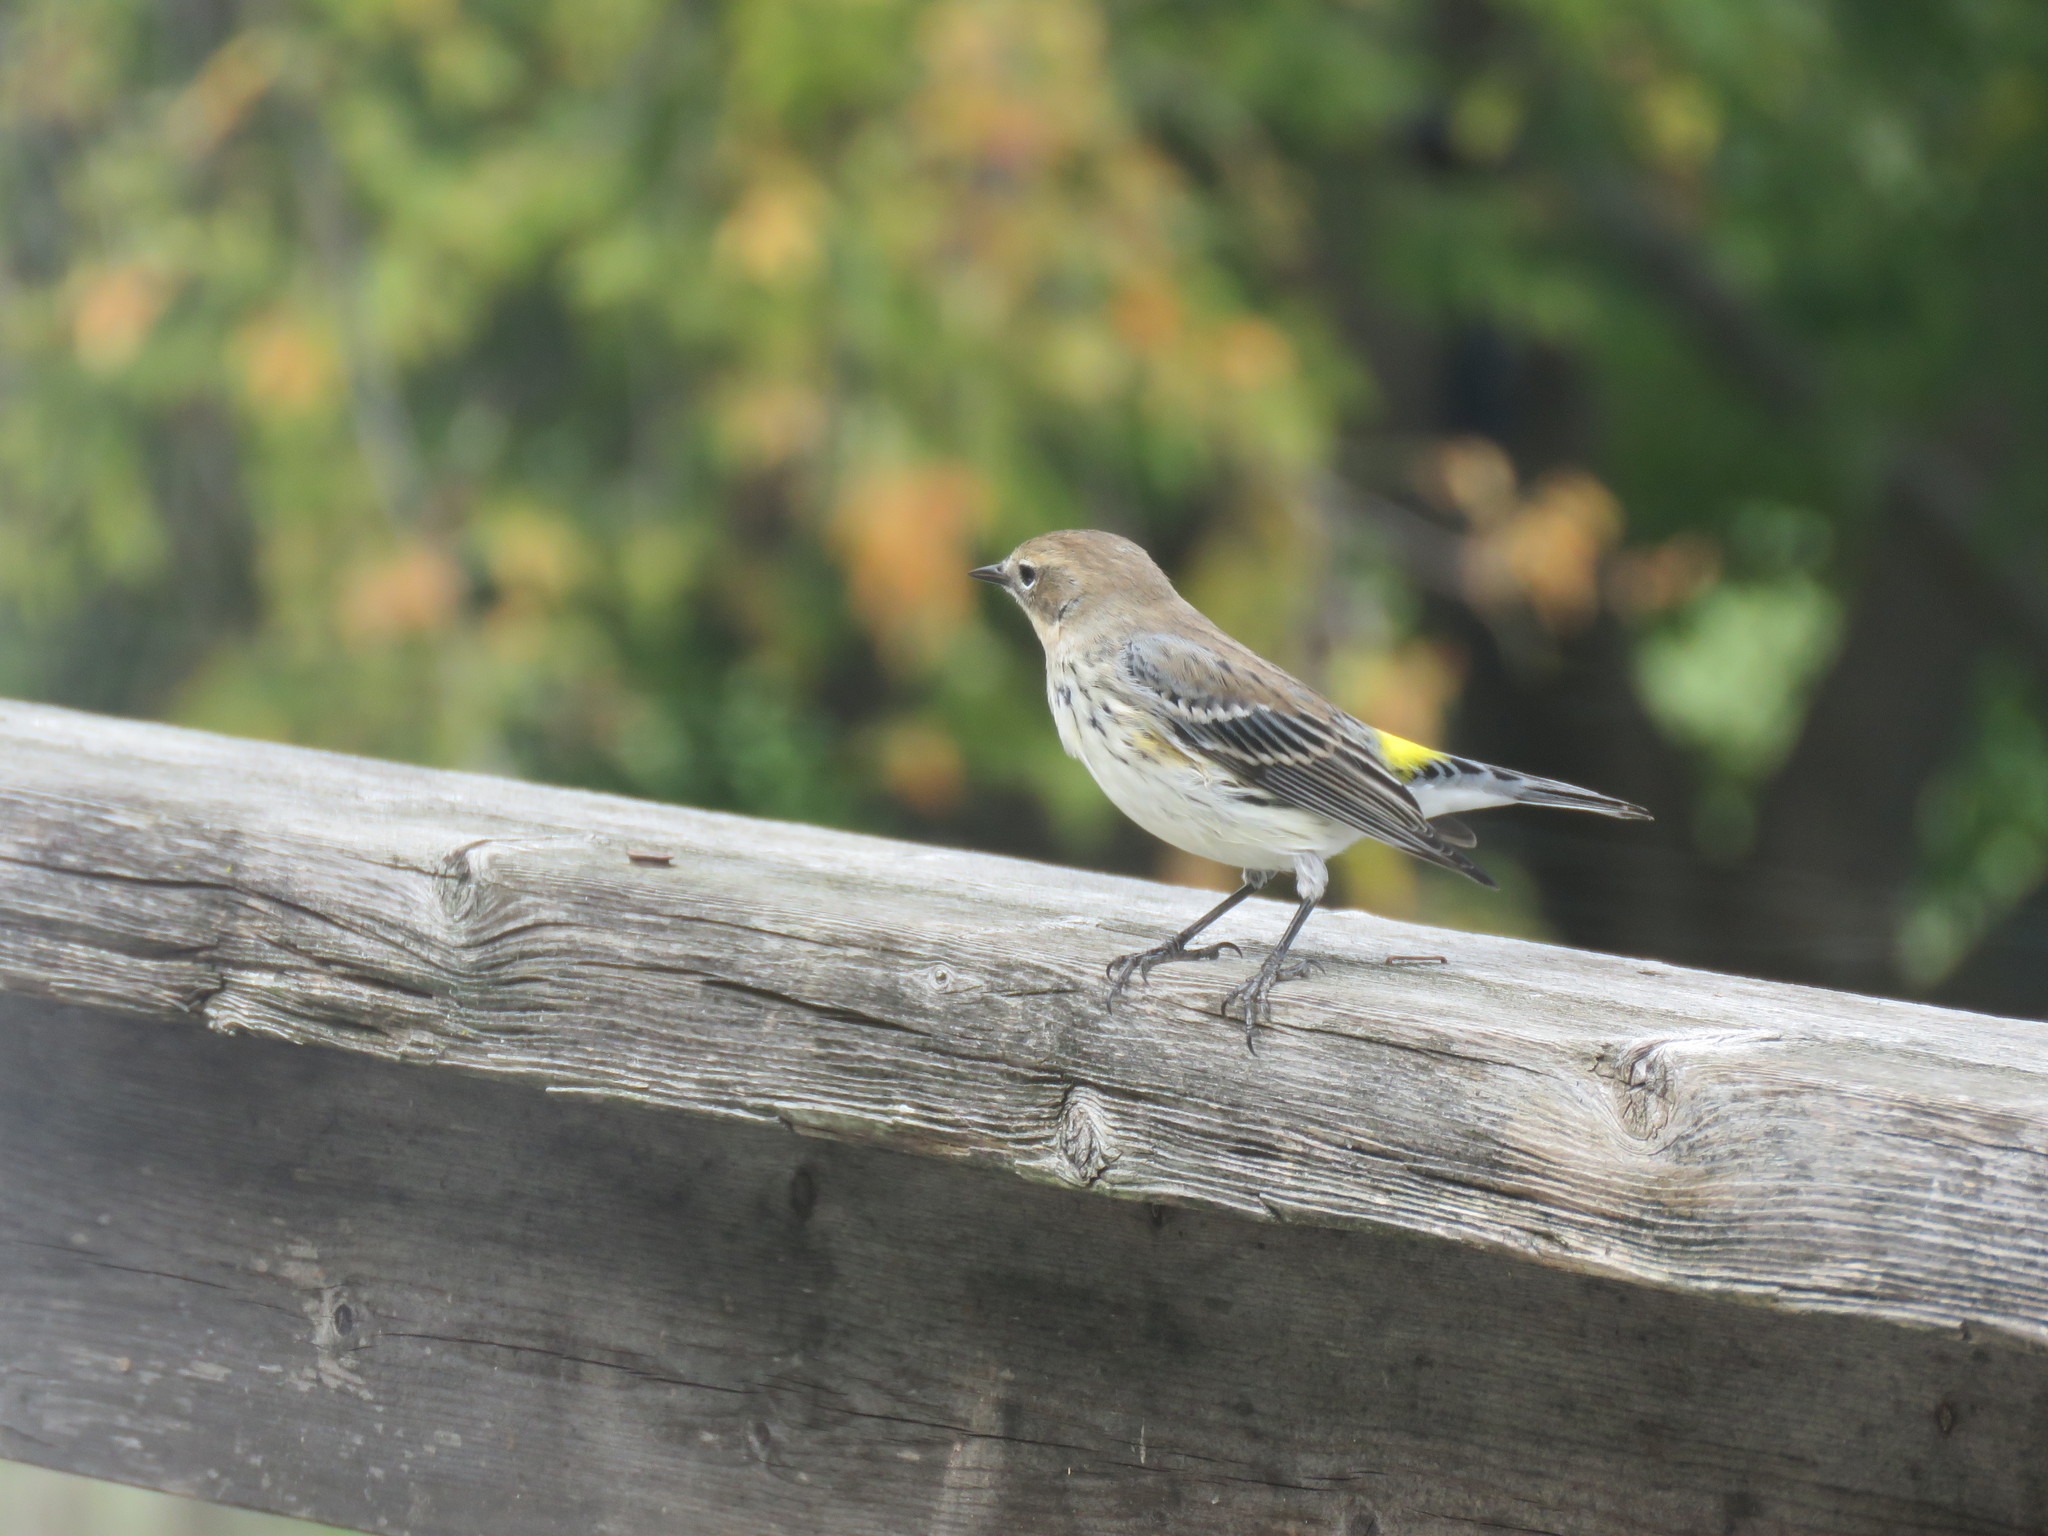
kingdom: Animalia
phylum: Chordata
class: Aves
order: Passeriformes
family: Parulidae
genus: Setophaga
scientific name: Setophaga coronata
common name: Myrtle warbler
